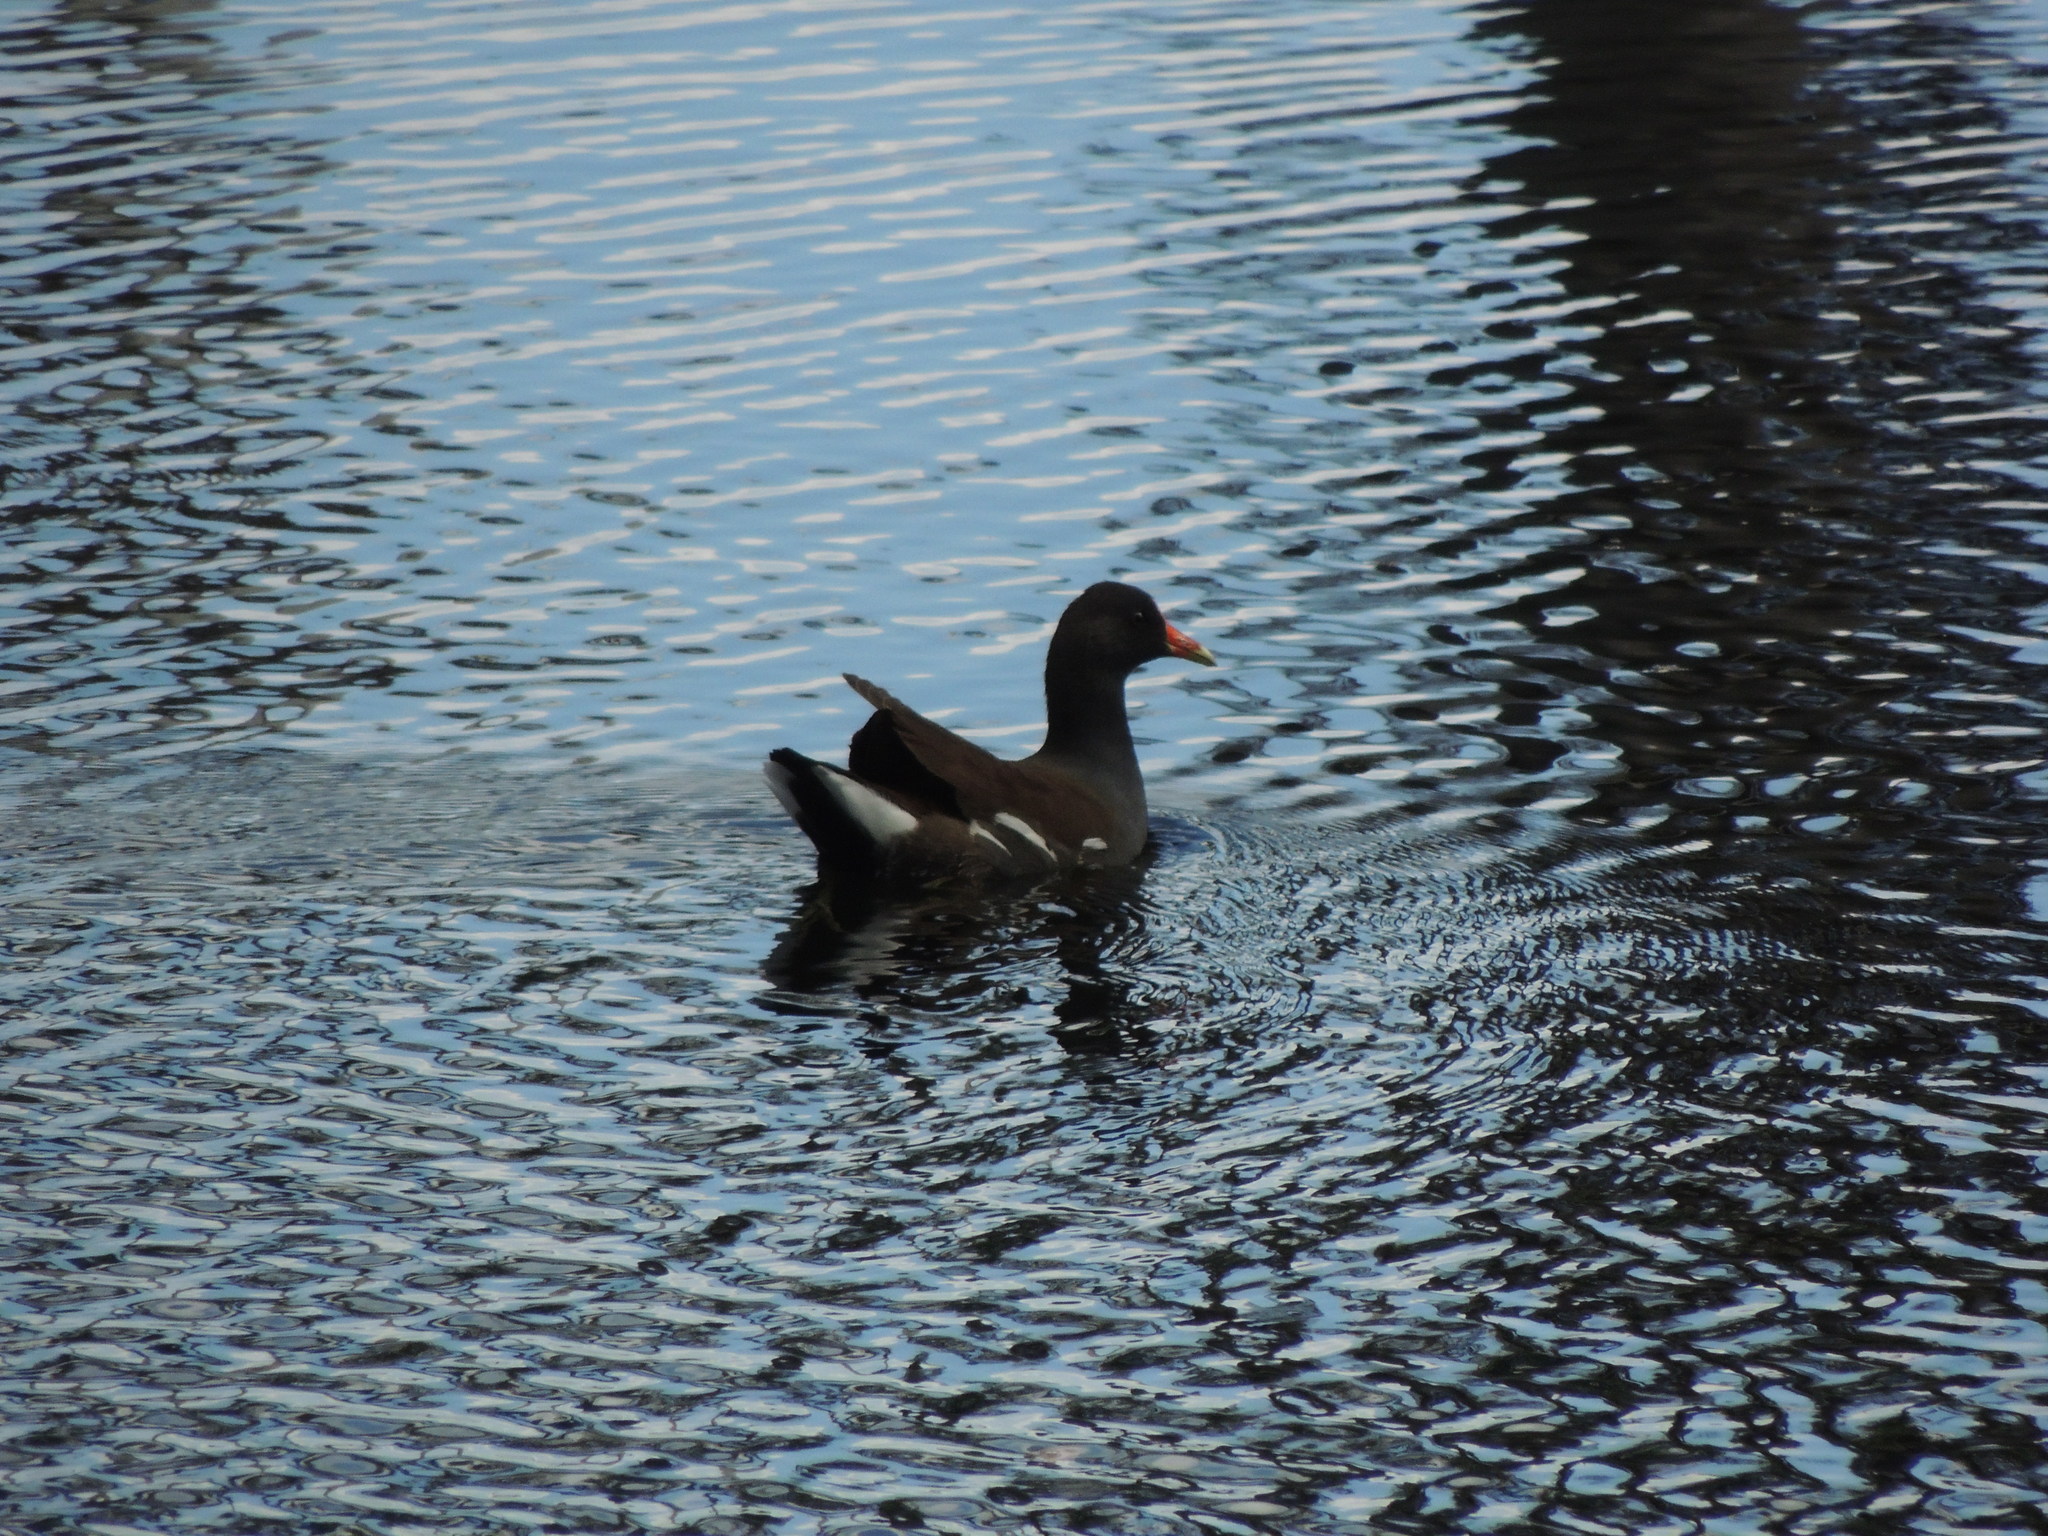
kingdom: Animalia
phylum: Chordata
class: Aves
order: Gruiformes
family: Rallidae
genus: Gallinula
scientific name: Gallinula chloropus
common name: Common moorhen
